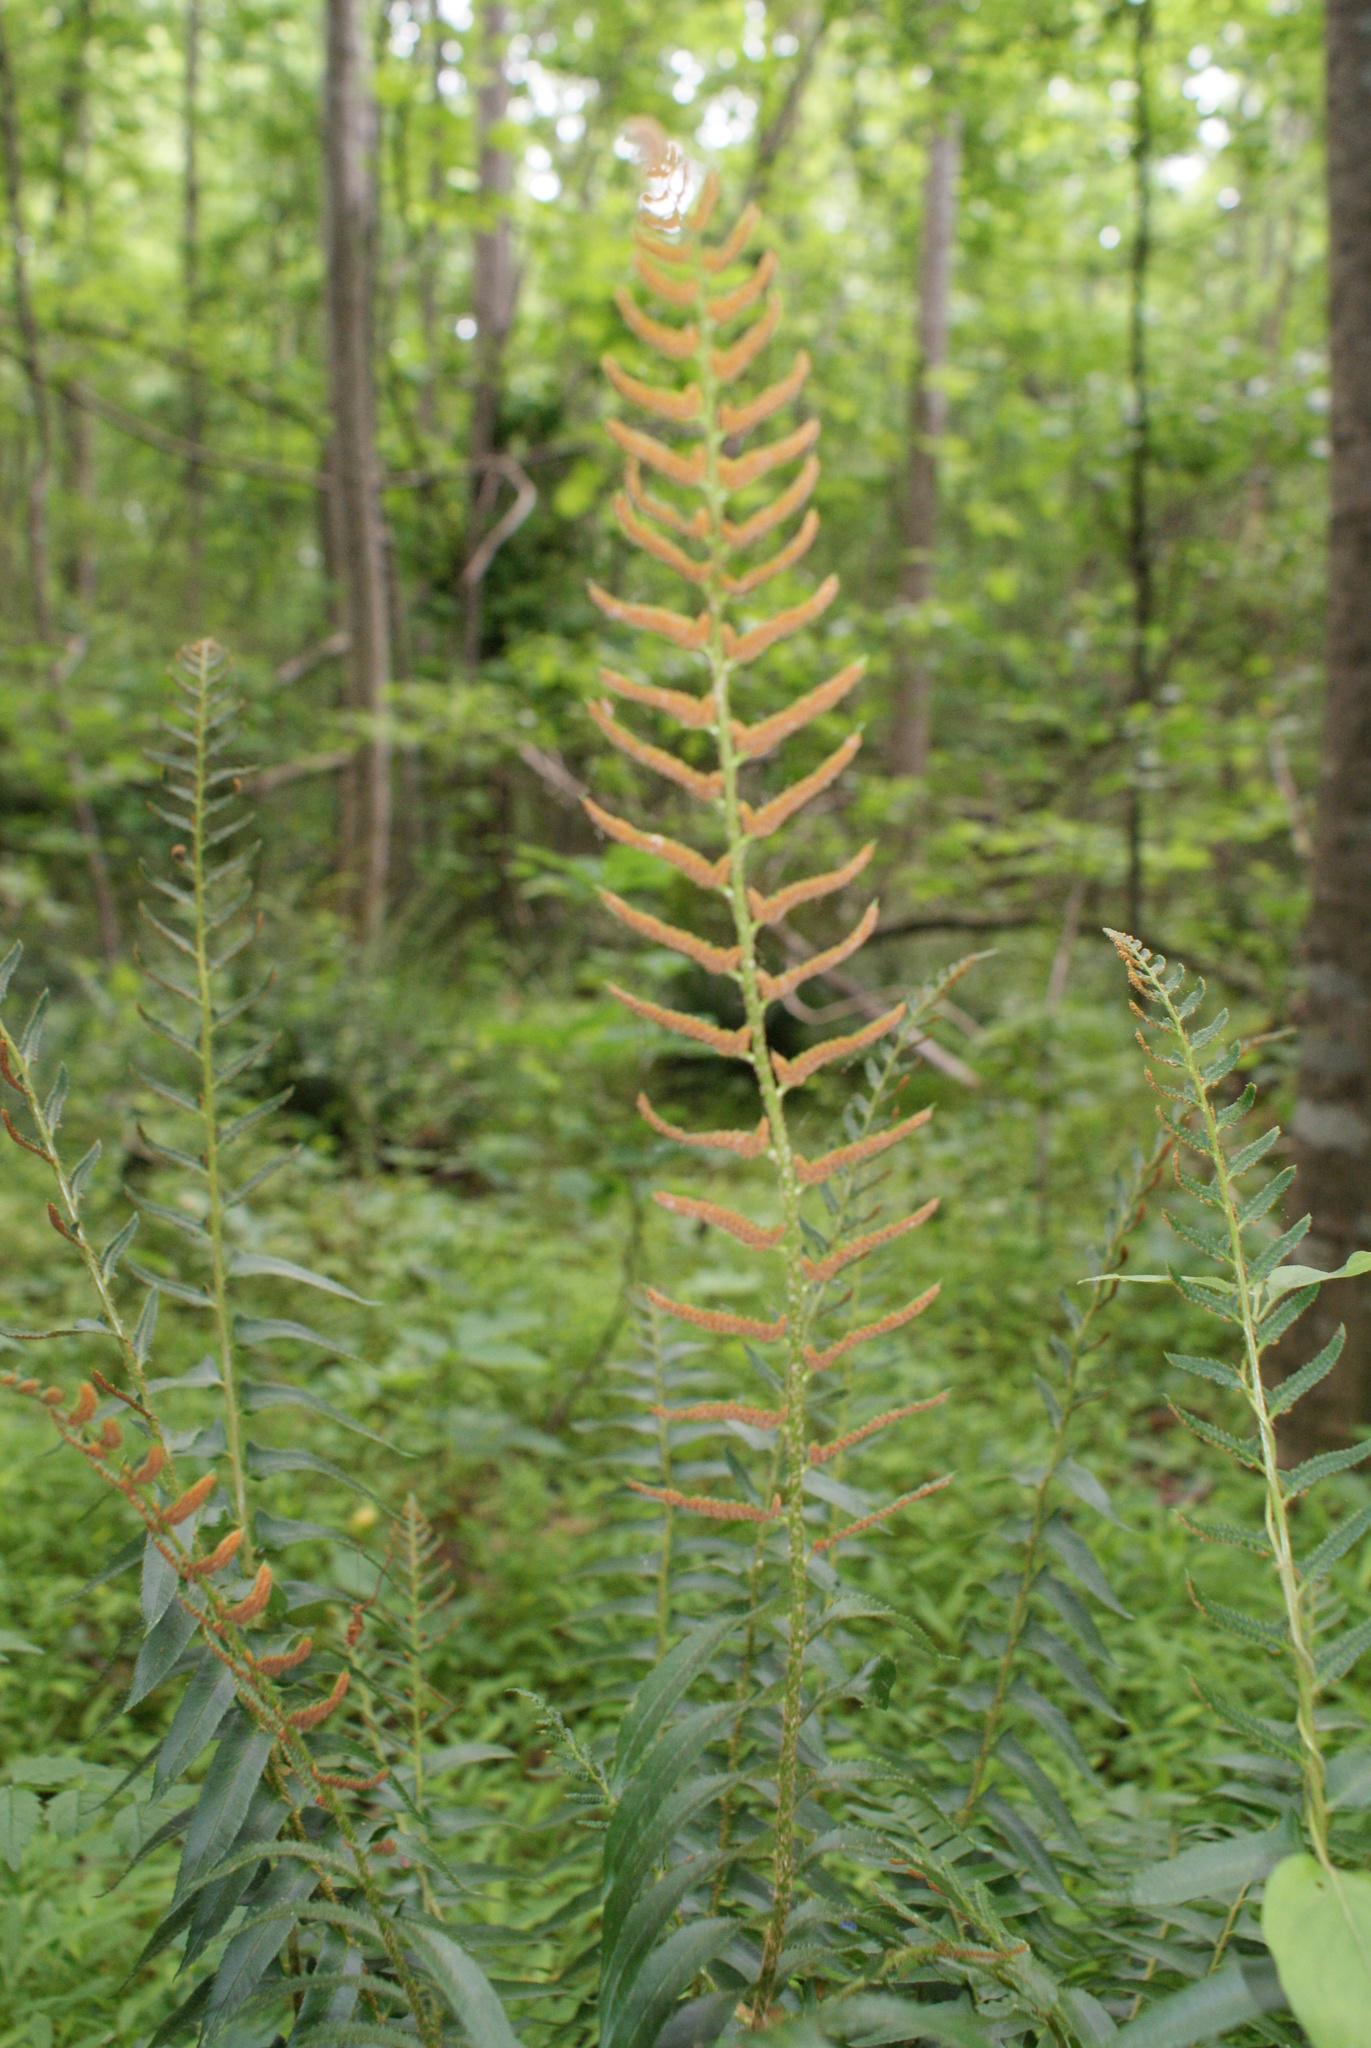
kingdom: Plantae
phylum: Tracheophyta
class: Polypodiopsida
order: Polypodiales
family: Dryopteridaceae
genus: Polystichum
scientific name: Polystichum acrostichoides
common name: Christmas fern
